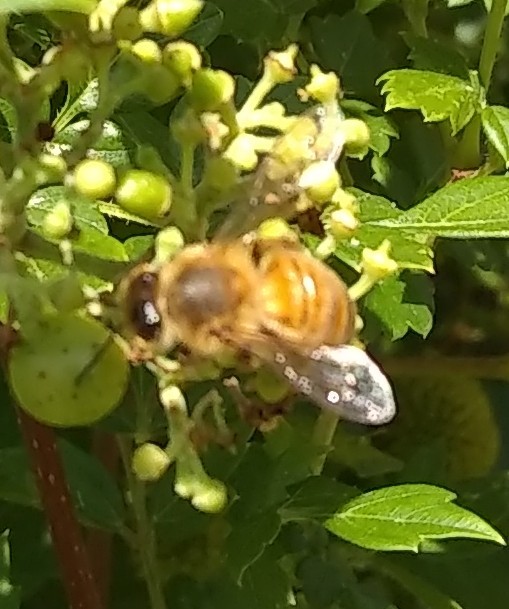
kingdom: Animalia
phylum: Arthropoda
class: Insecta
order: Hymenoptera
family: Apidae
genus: Apis
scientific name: Apis mellifera
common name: Honey bee
